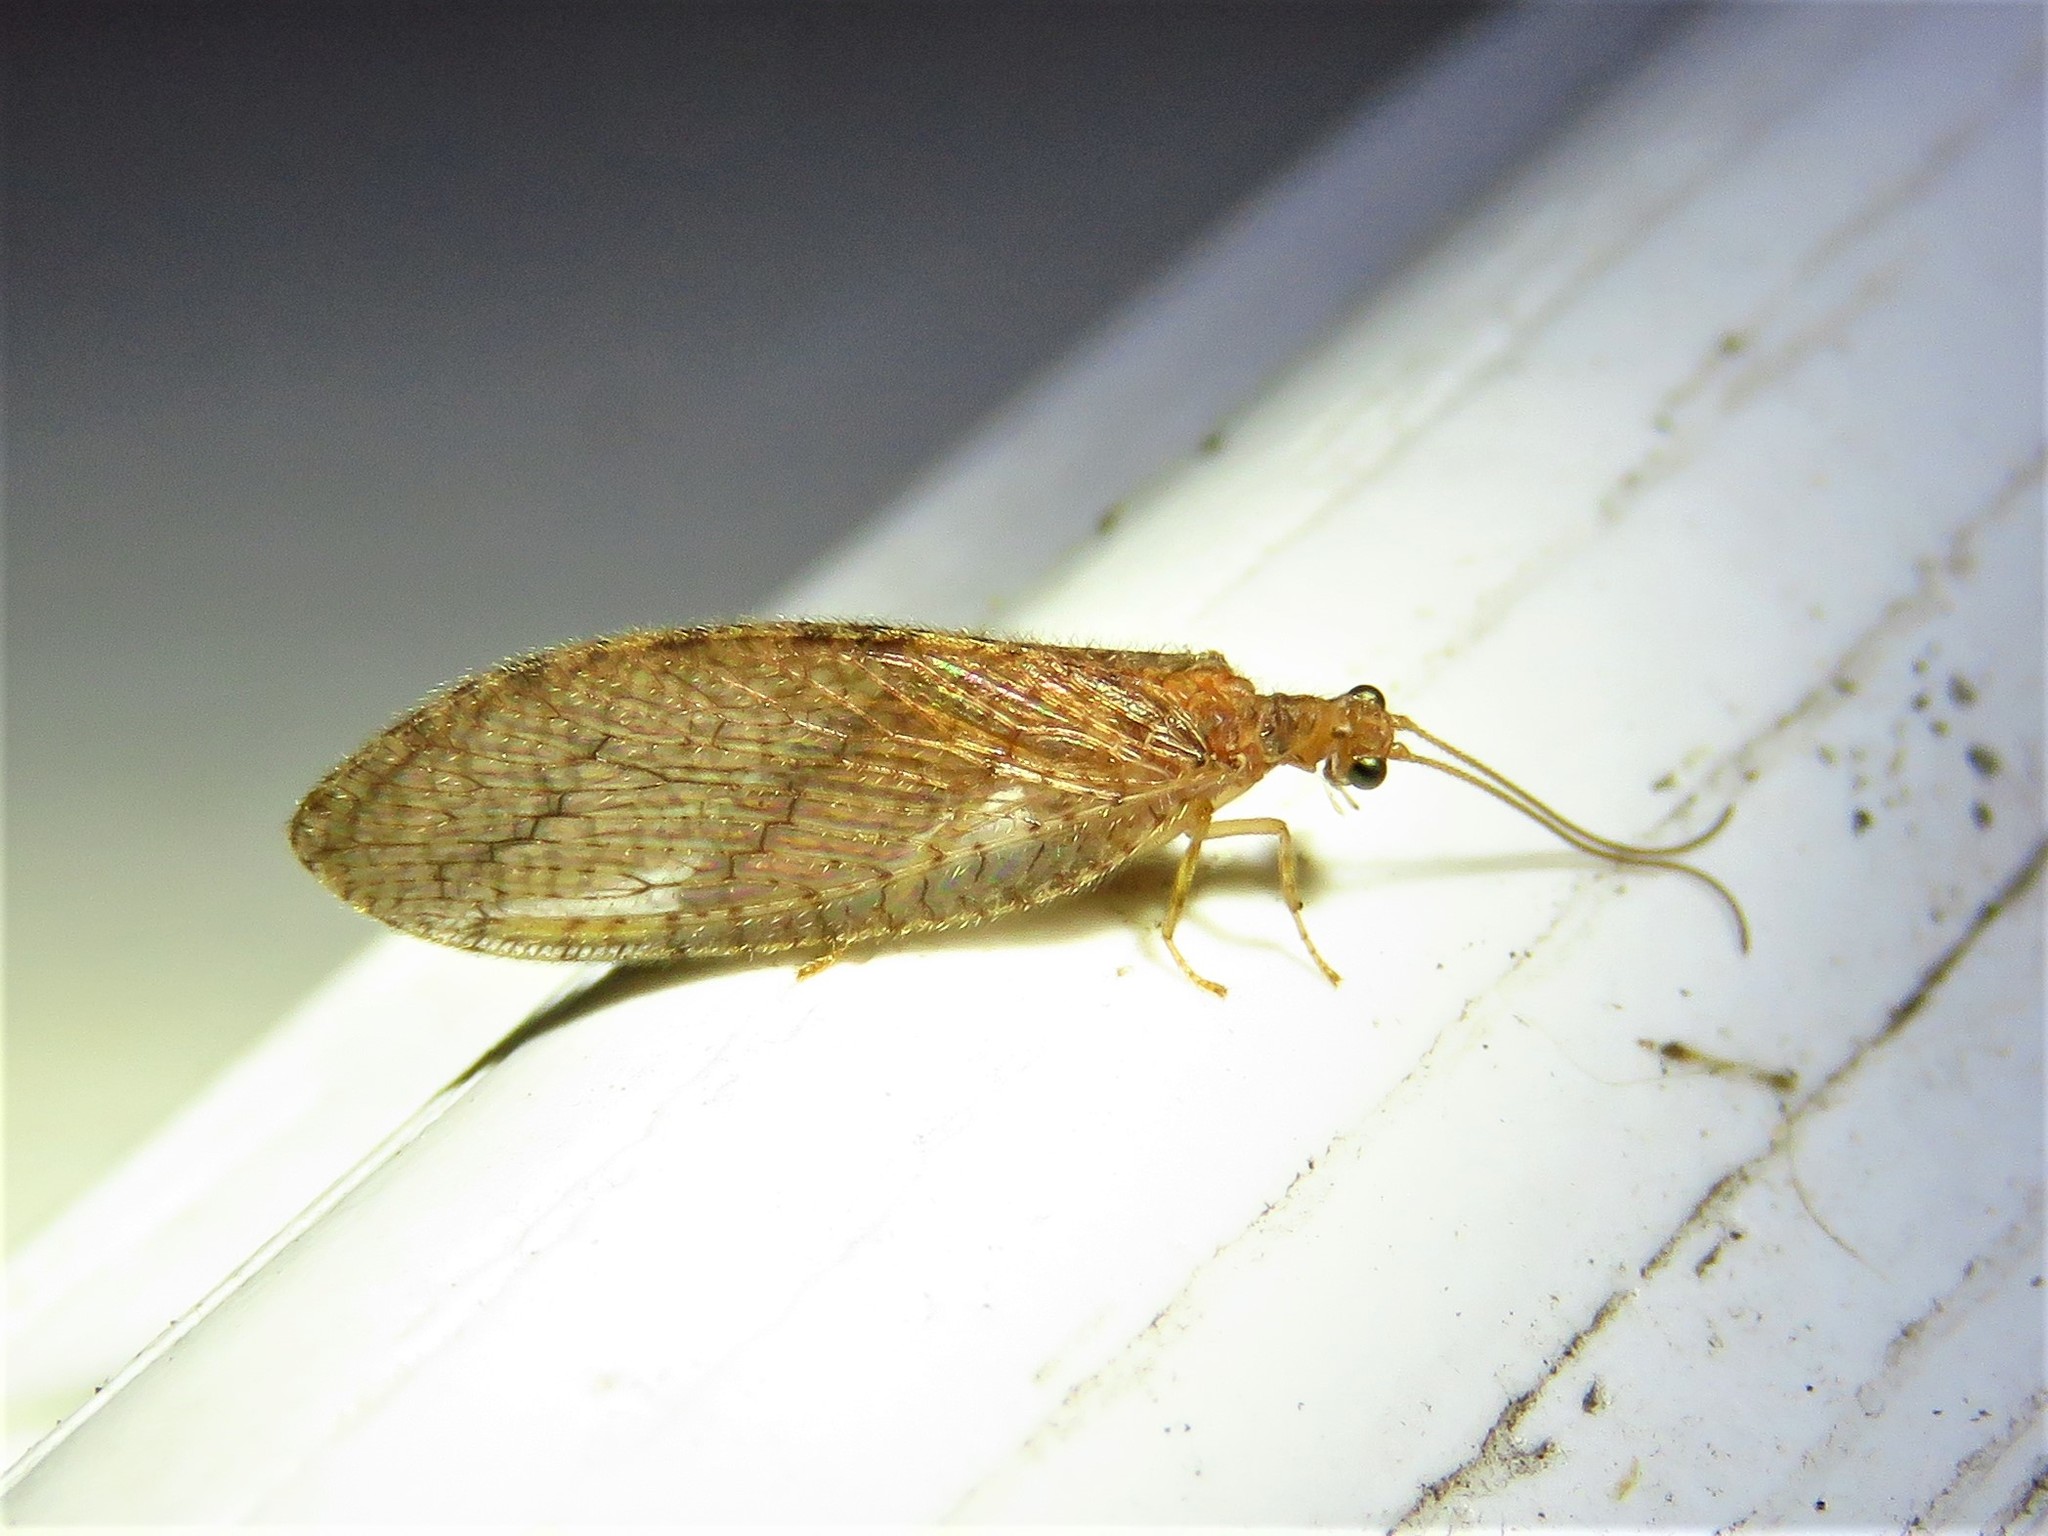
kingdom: Animalia
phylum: Arthropoda
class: Insecta
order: Neuroptera
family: Hemerobiidae
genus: Micromus
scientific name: Micromus posticus
